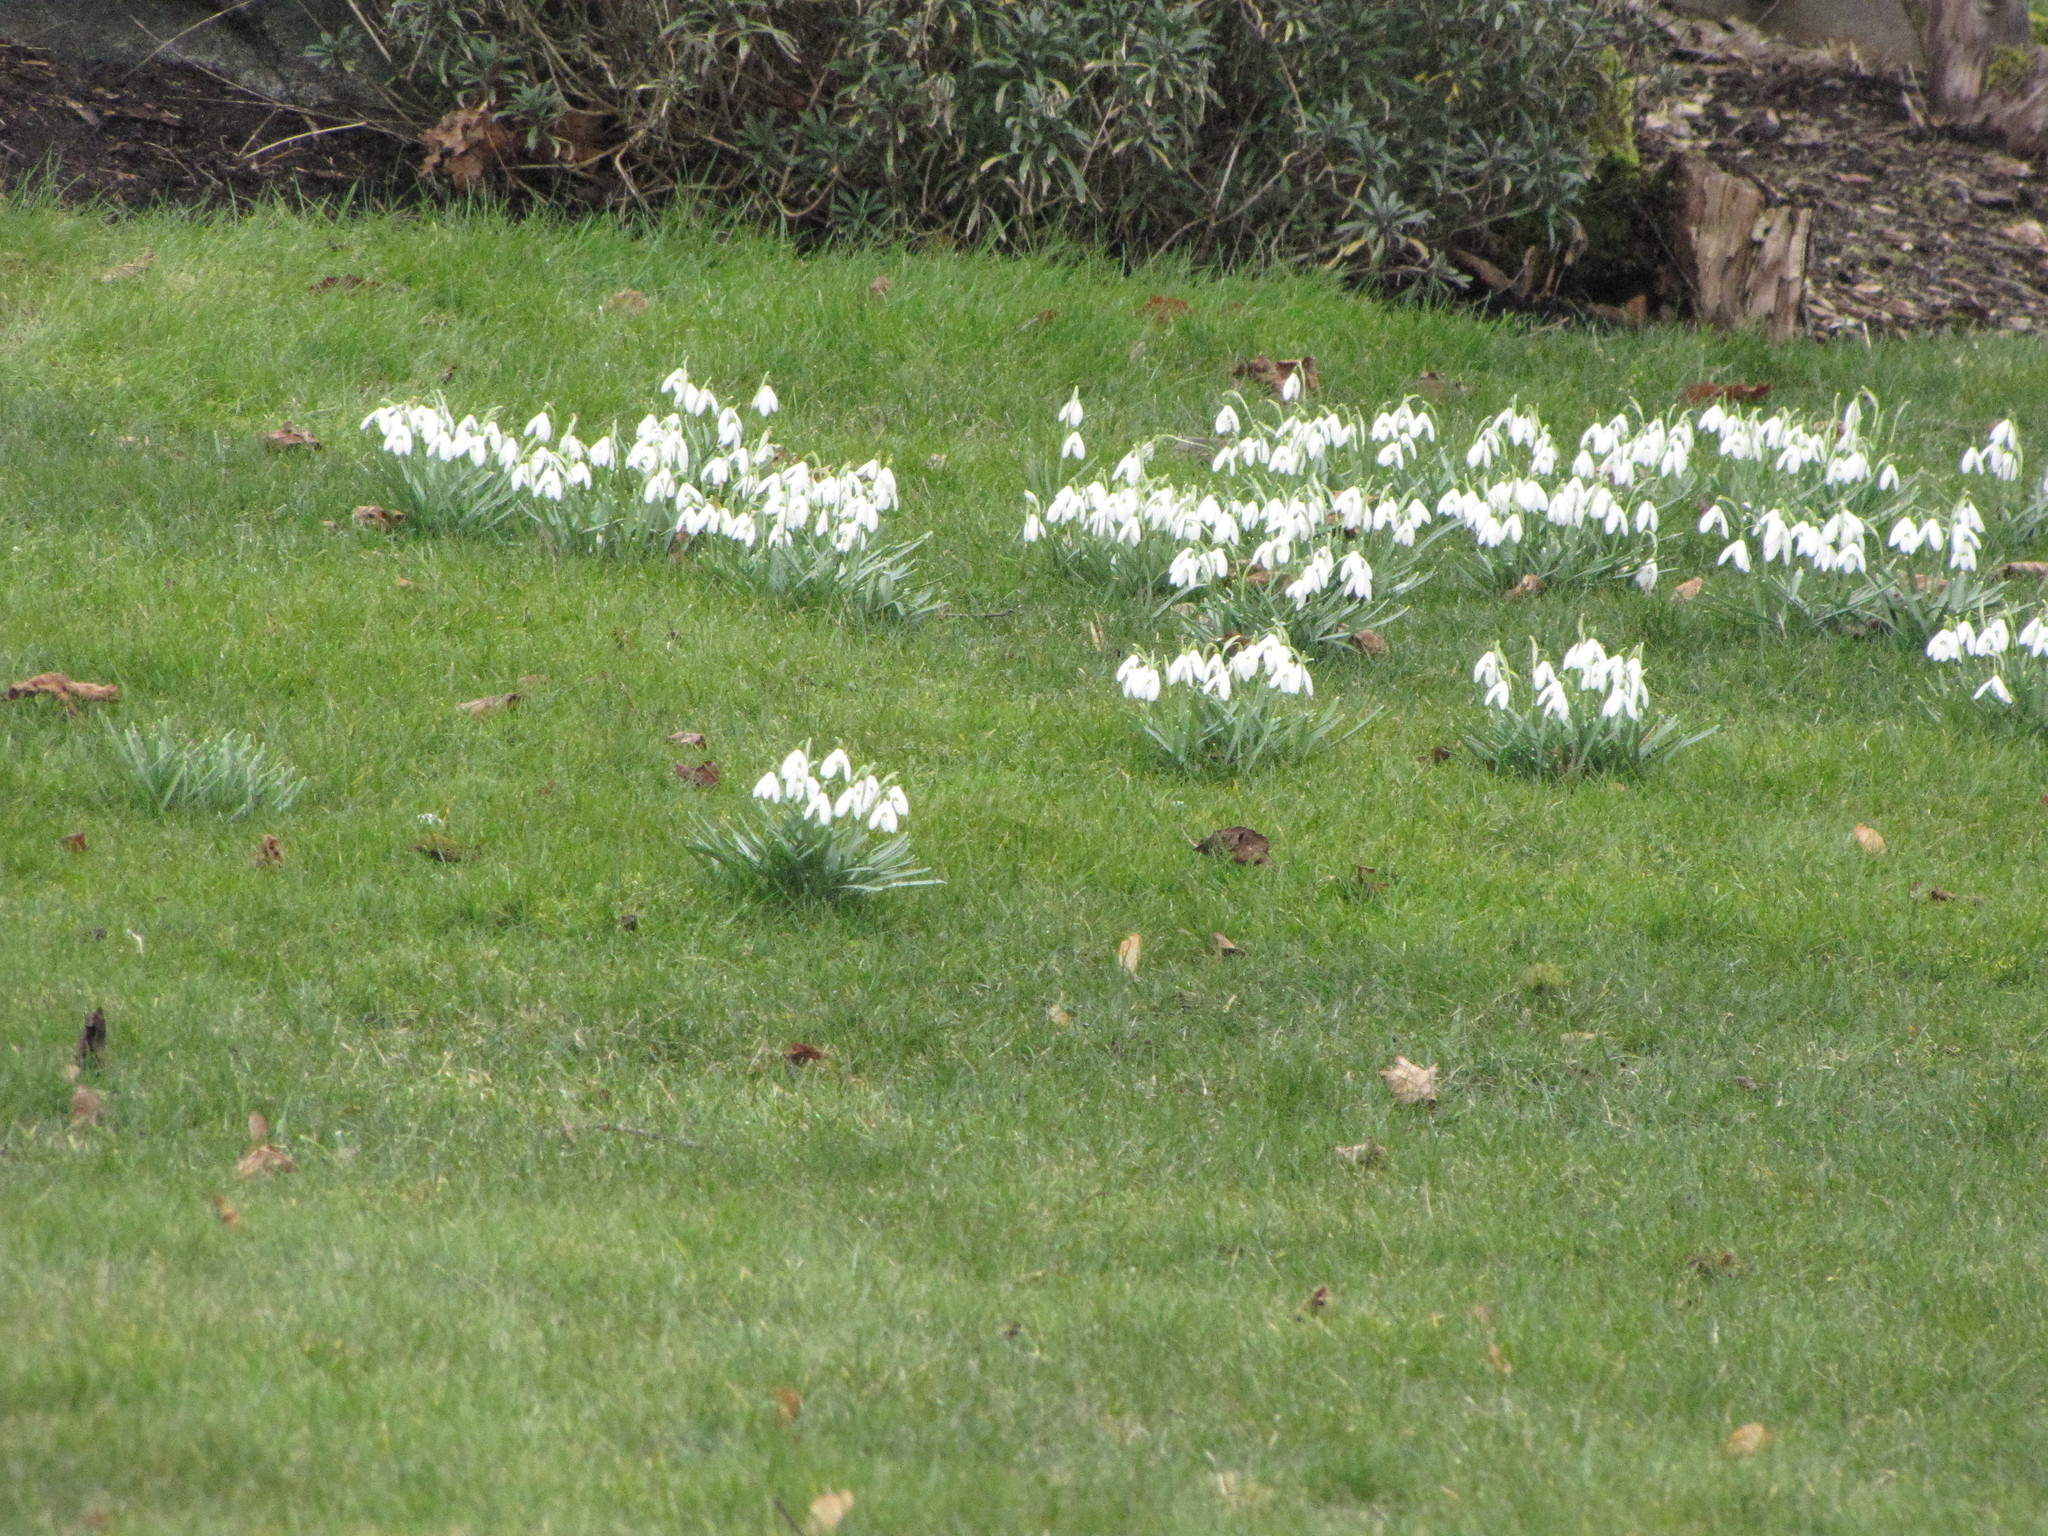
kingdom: Plantae
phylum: Tracheophyta
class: Liliopsida
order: Asparagales
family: Amaryllidaceae
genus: Galanthus
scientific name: Galanthus nivalis
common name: Snowdrop
